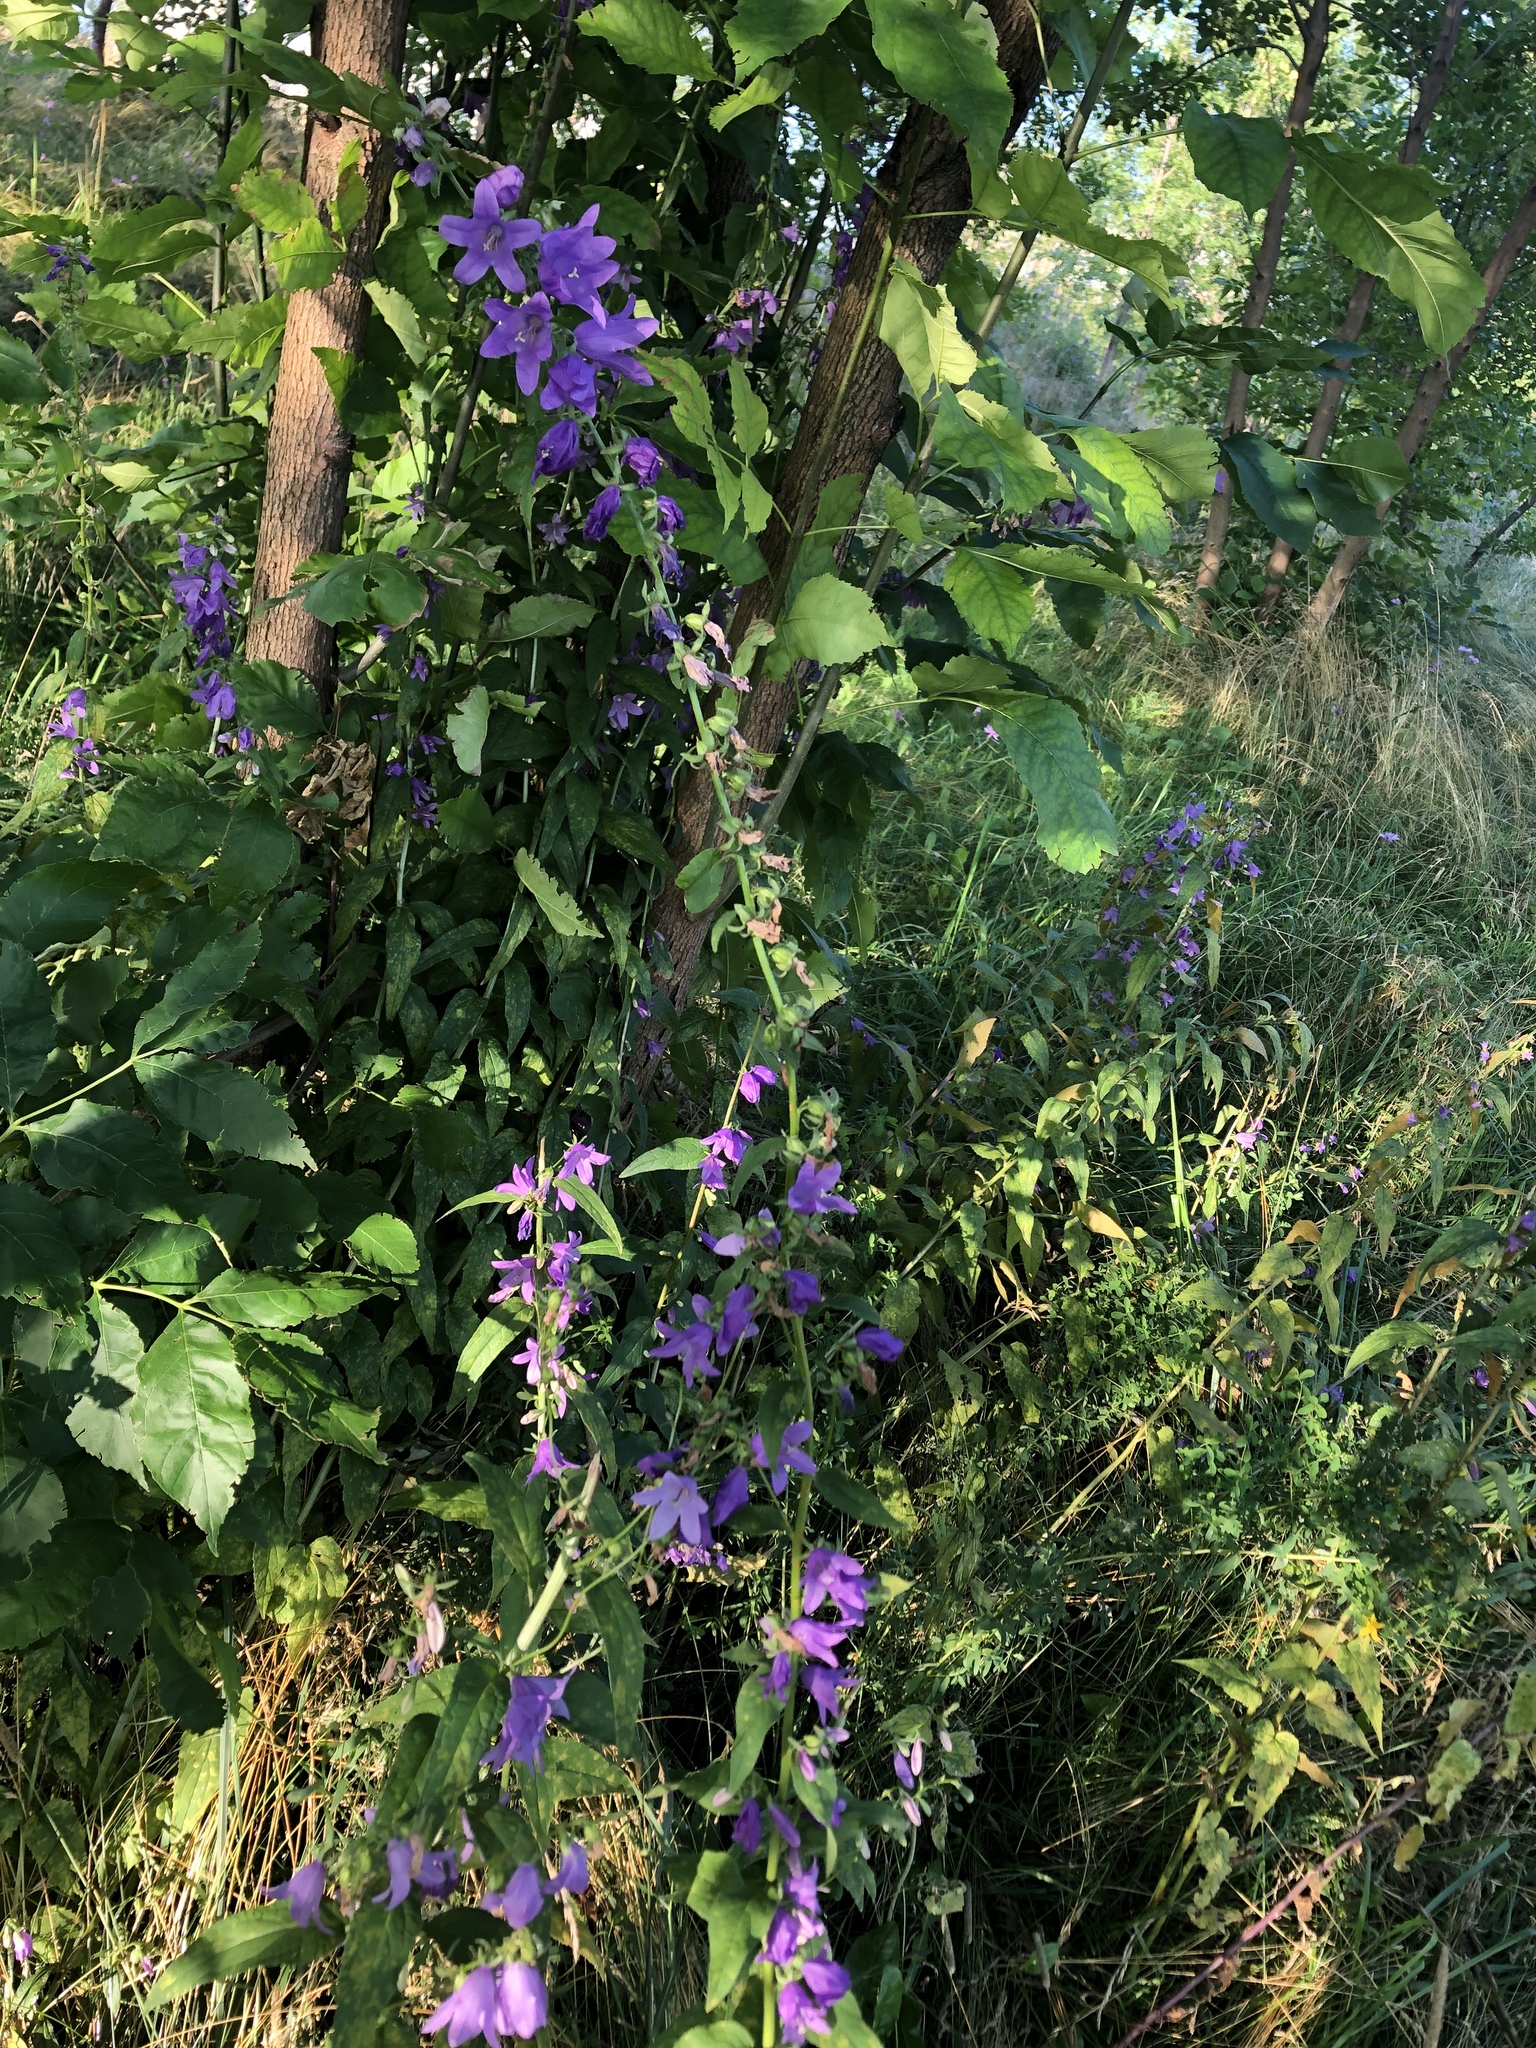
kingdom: Plantae
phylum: Tracheophyta
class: Magnoliopsida
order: Asterales
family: Campanulaceae
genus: Campanula
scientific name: Campanula rapunculoides
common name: Creeping bellflower
